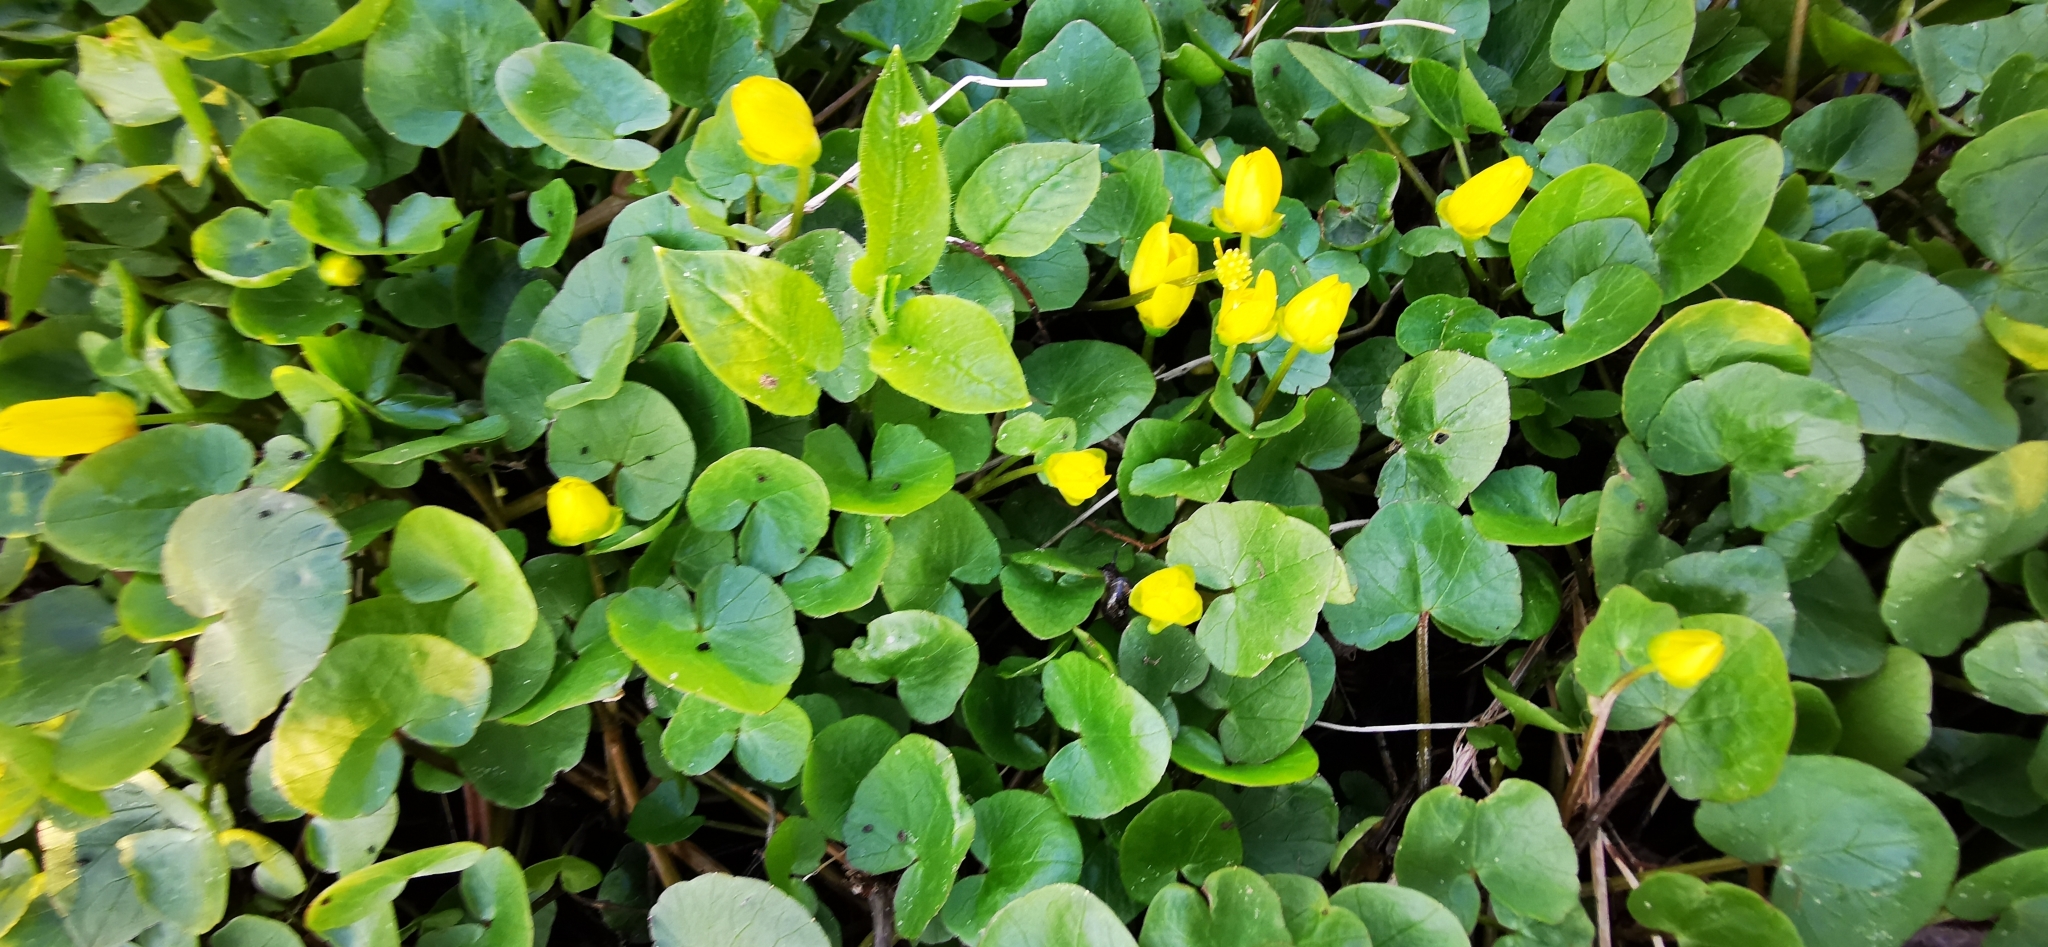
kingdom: Plantae
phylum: Tracheophyta
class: Magnoliopsida
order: Ranunculales
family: Ranunculaceae
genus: Ficaria
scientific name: Ficaria verna
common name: Lesser celandine
